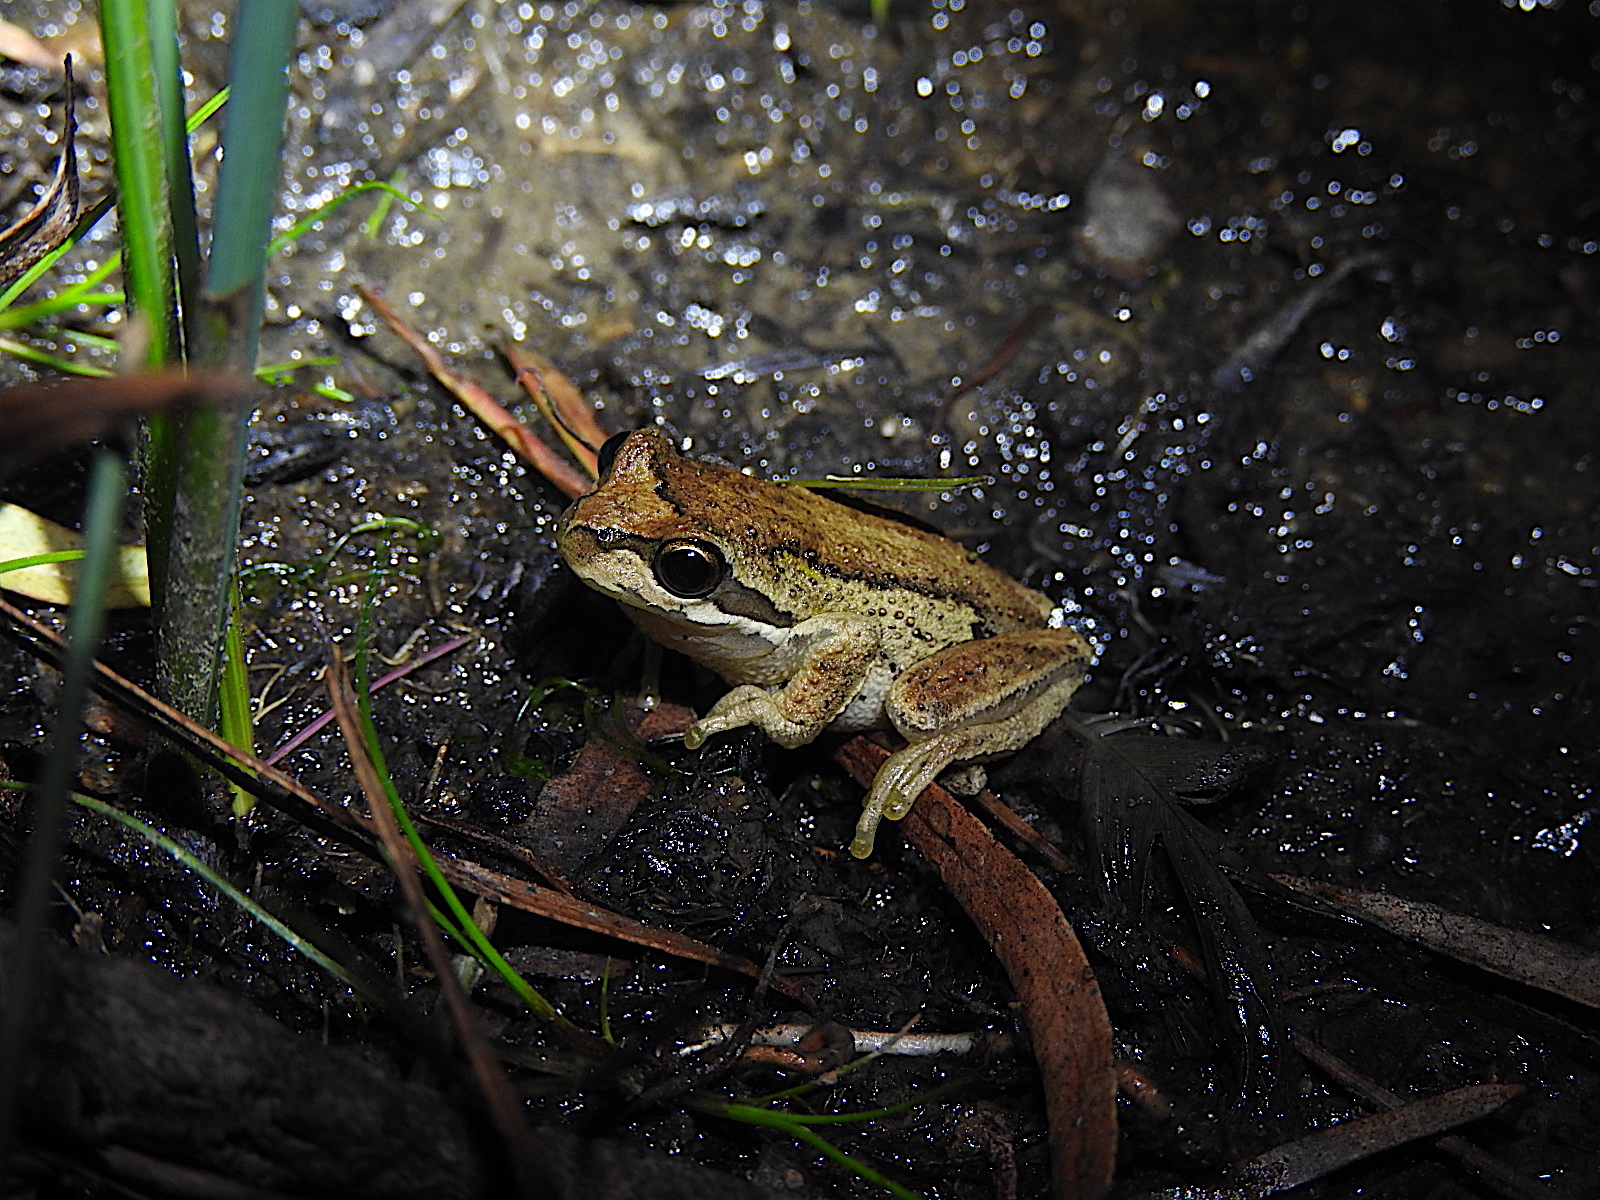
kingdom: Animalia
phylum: Chordata
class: Amphibia
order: Anura
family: Pelodryadidae
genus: Litoria
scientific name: Litoria ewingii
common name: Southern brown tree frog
